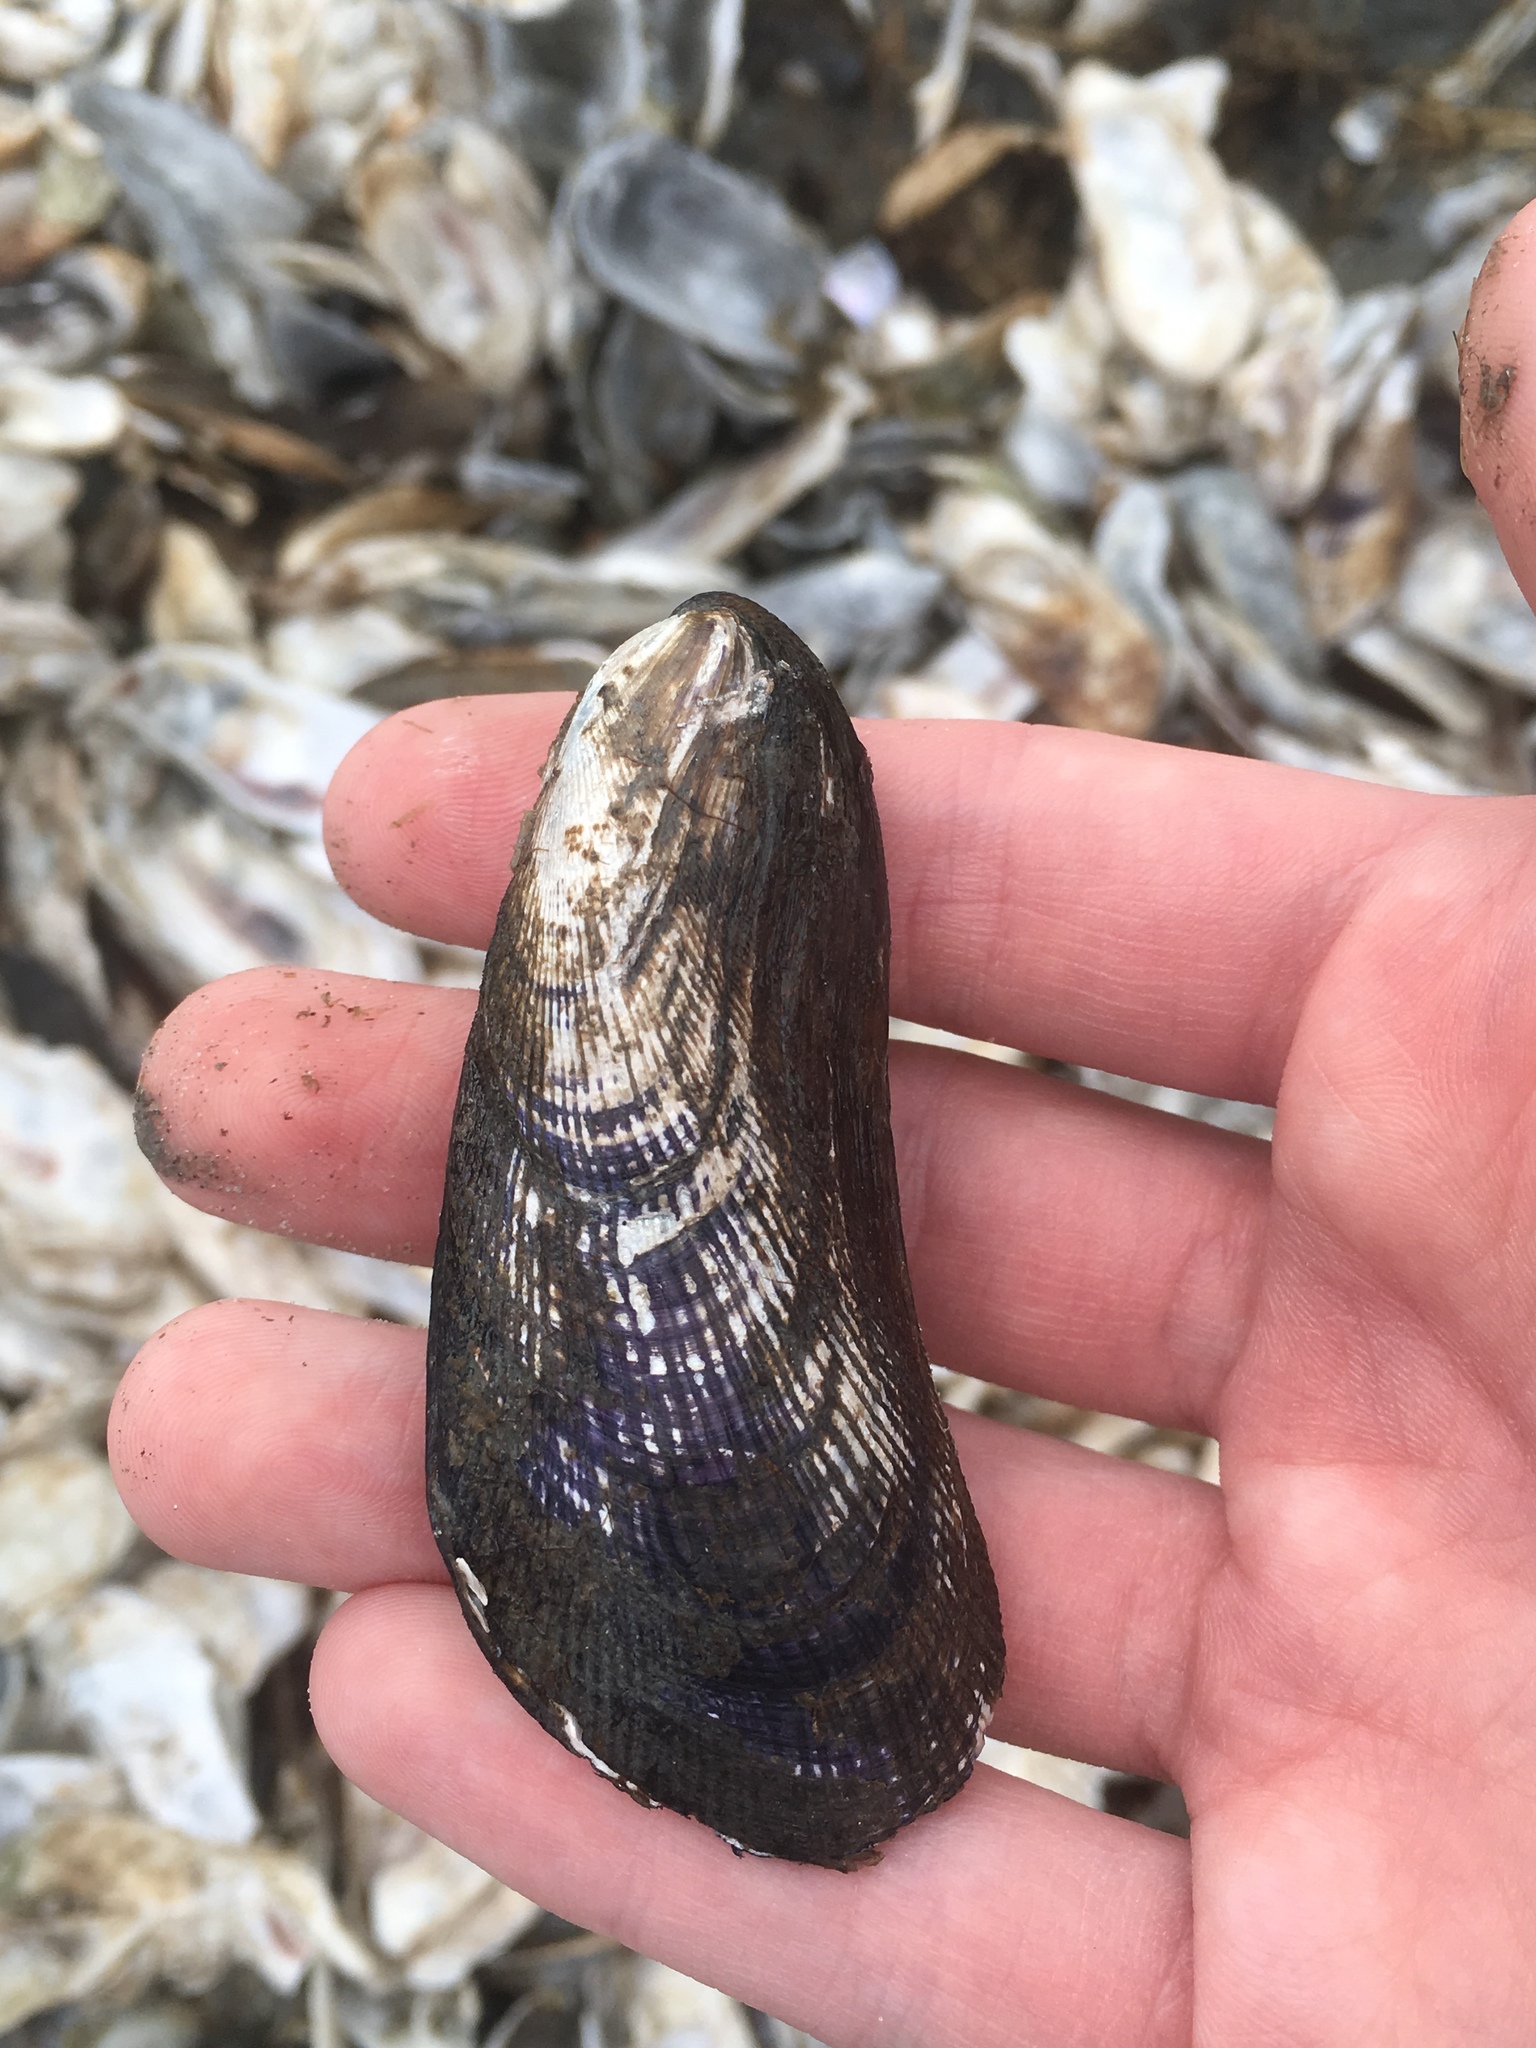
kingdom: Animalia
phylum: Mollusca
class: Bivalvia
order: Mytilida
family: Mytilidae
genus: Geukensia
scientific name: Geukensia demissa
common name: Ribbed mussel
